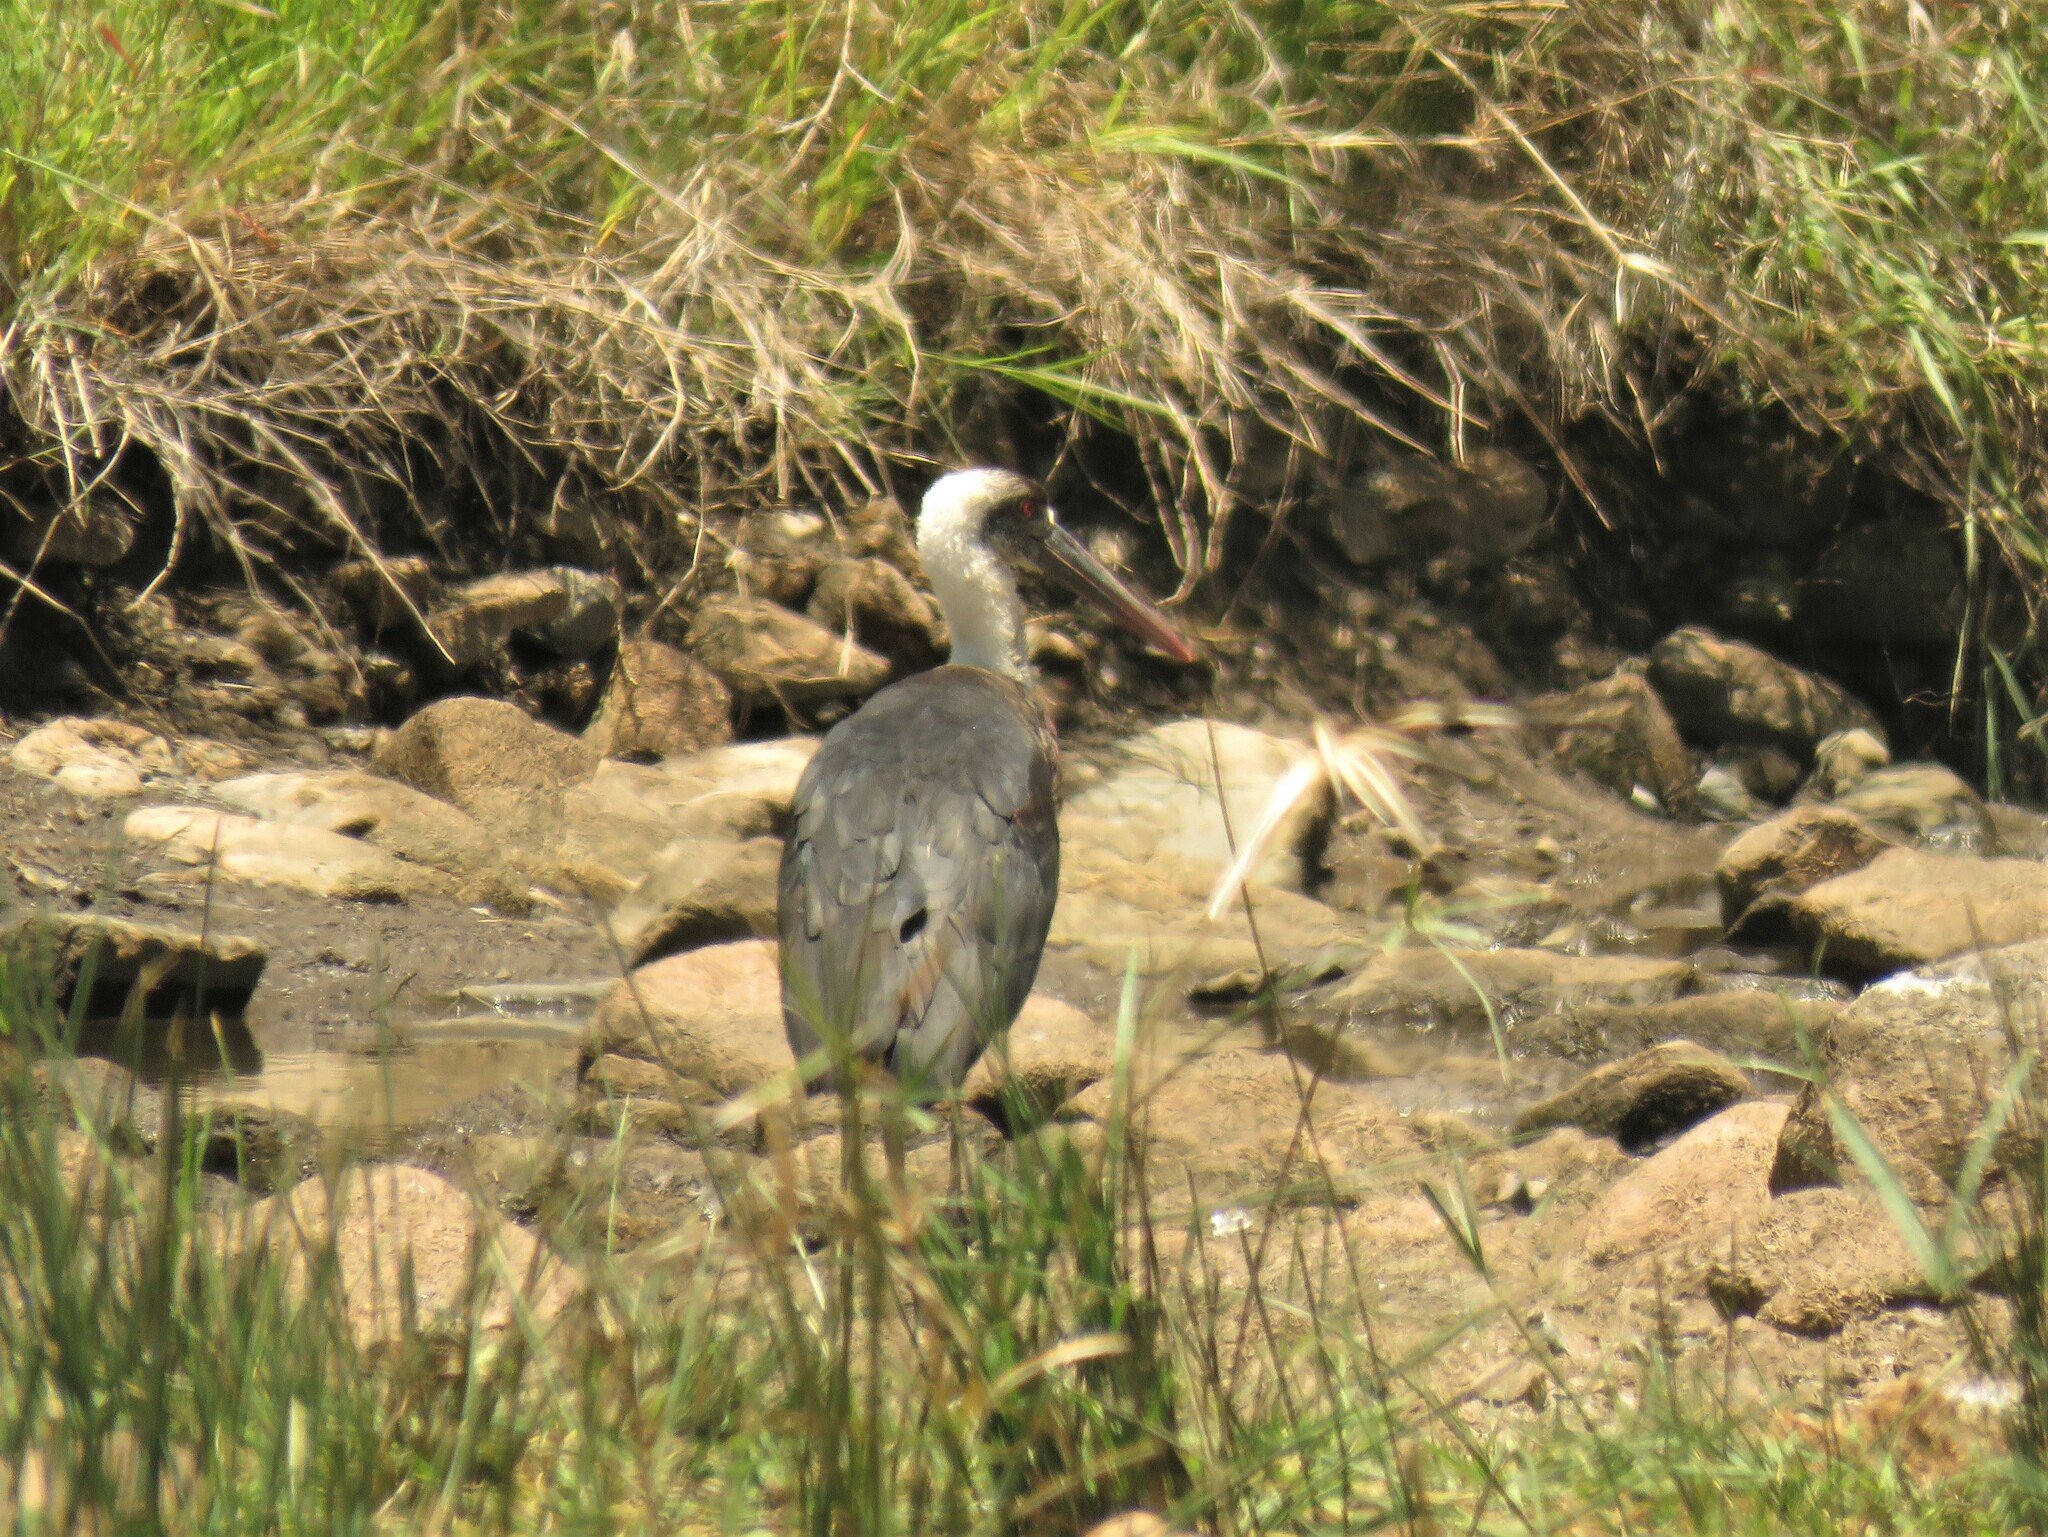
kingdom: Animalia
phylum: Chordata
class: Aves
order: Ciconiiformes
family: Ciconiidae
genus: Ciconia
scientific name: Ciconia microscelis
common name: African woollyneck
